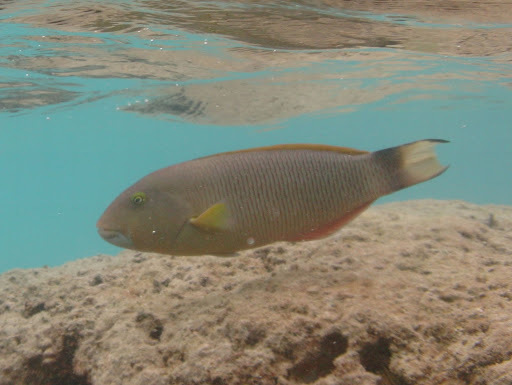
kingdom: Animalia
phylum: Chordata
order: Perciformes
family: Labridae
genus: Thalassoma
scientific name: Thalassoma ballieui
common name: Ballieu's wrasse
